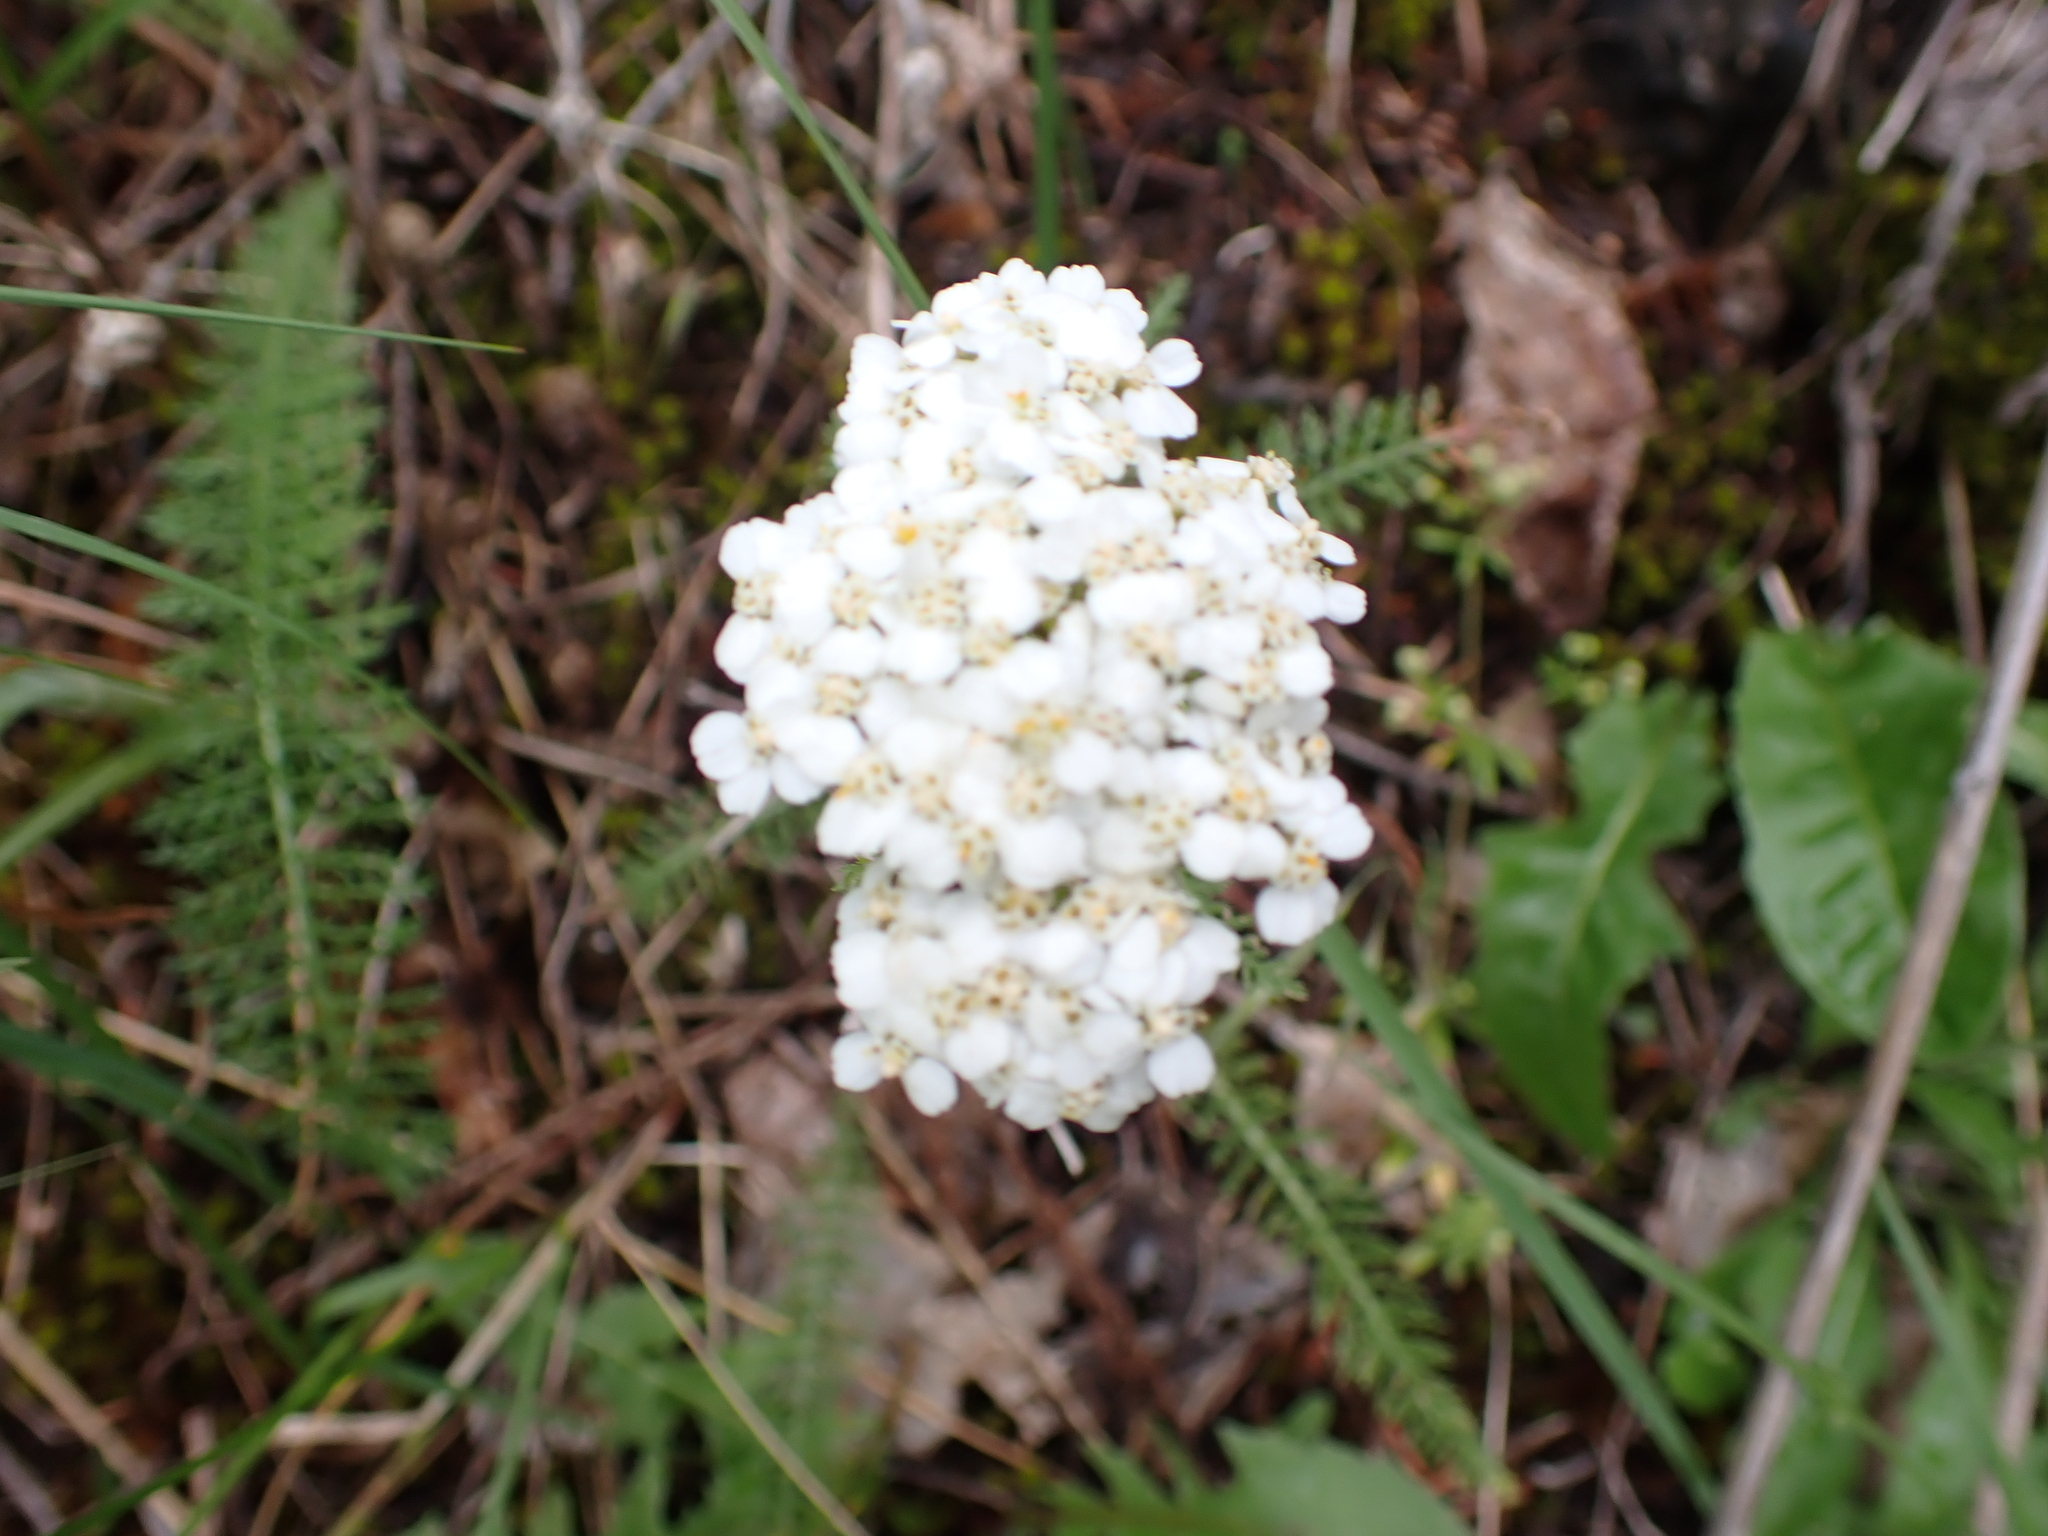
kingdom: Plantae
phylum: Tracheophyta
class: Magnoliopsida
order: Asterales
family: Asteraceae
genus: Achillea
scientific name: Achillea millefolium
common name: Yarrow
